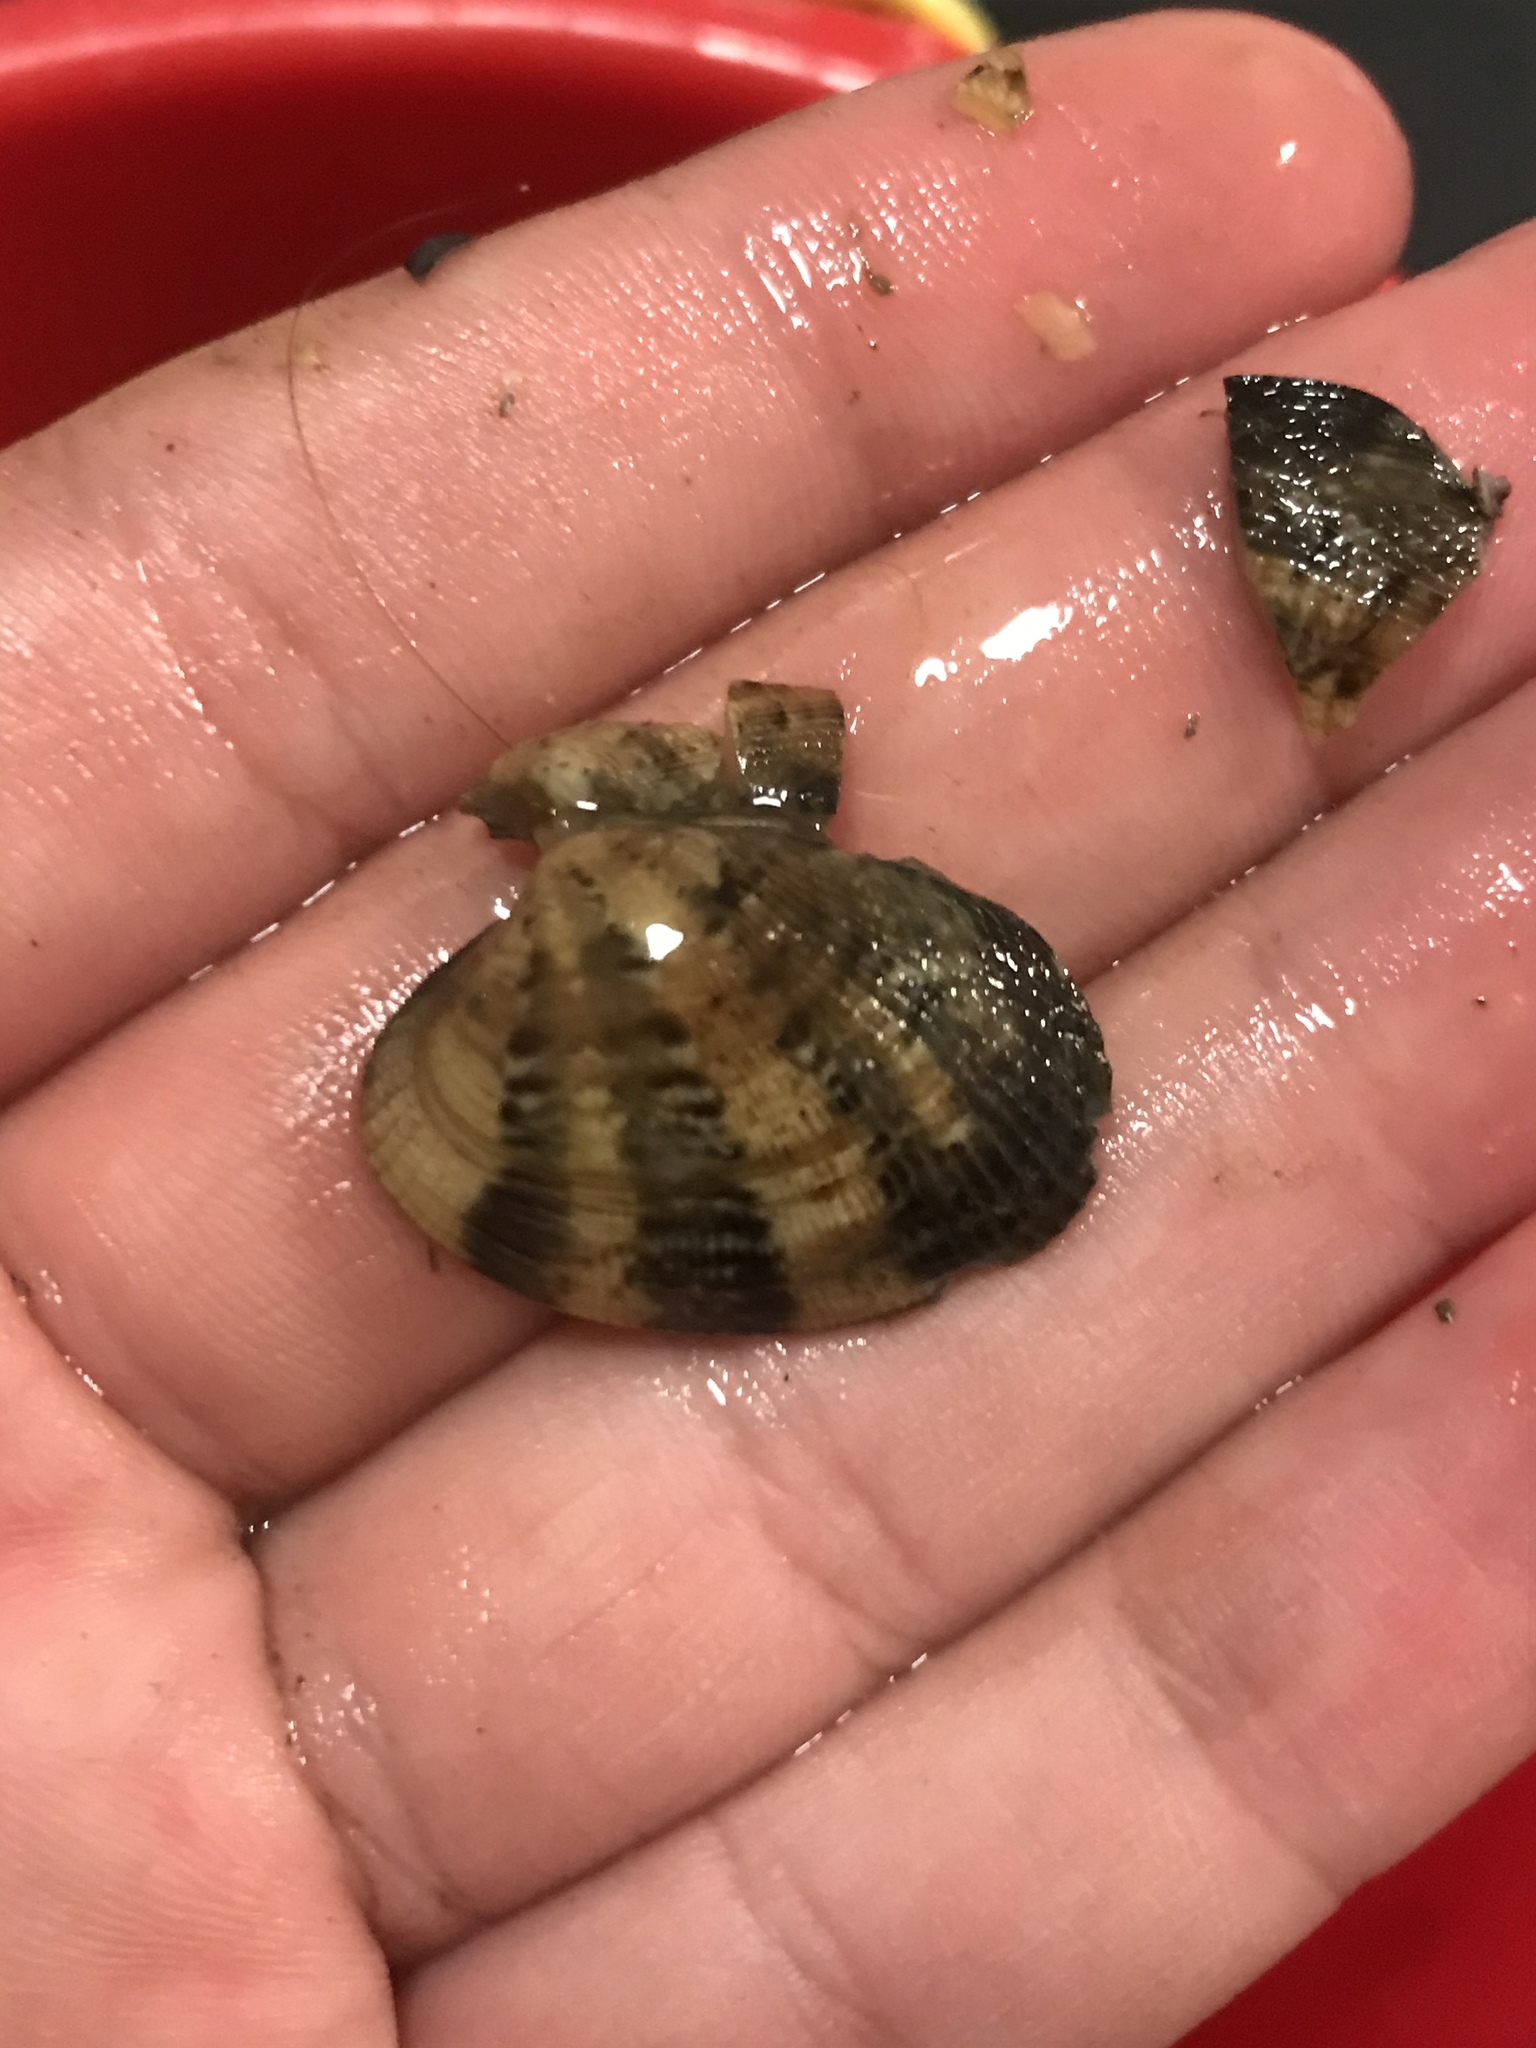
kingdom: Animalia
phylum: Mollusca
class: Bivalvia
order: Venerida
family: Veneridae
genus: Ruditapes
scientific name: Ruditapes philippinarum
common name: Manila clam
